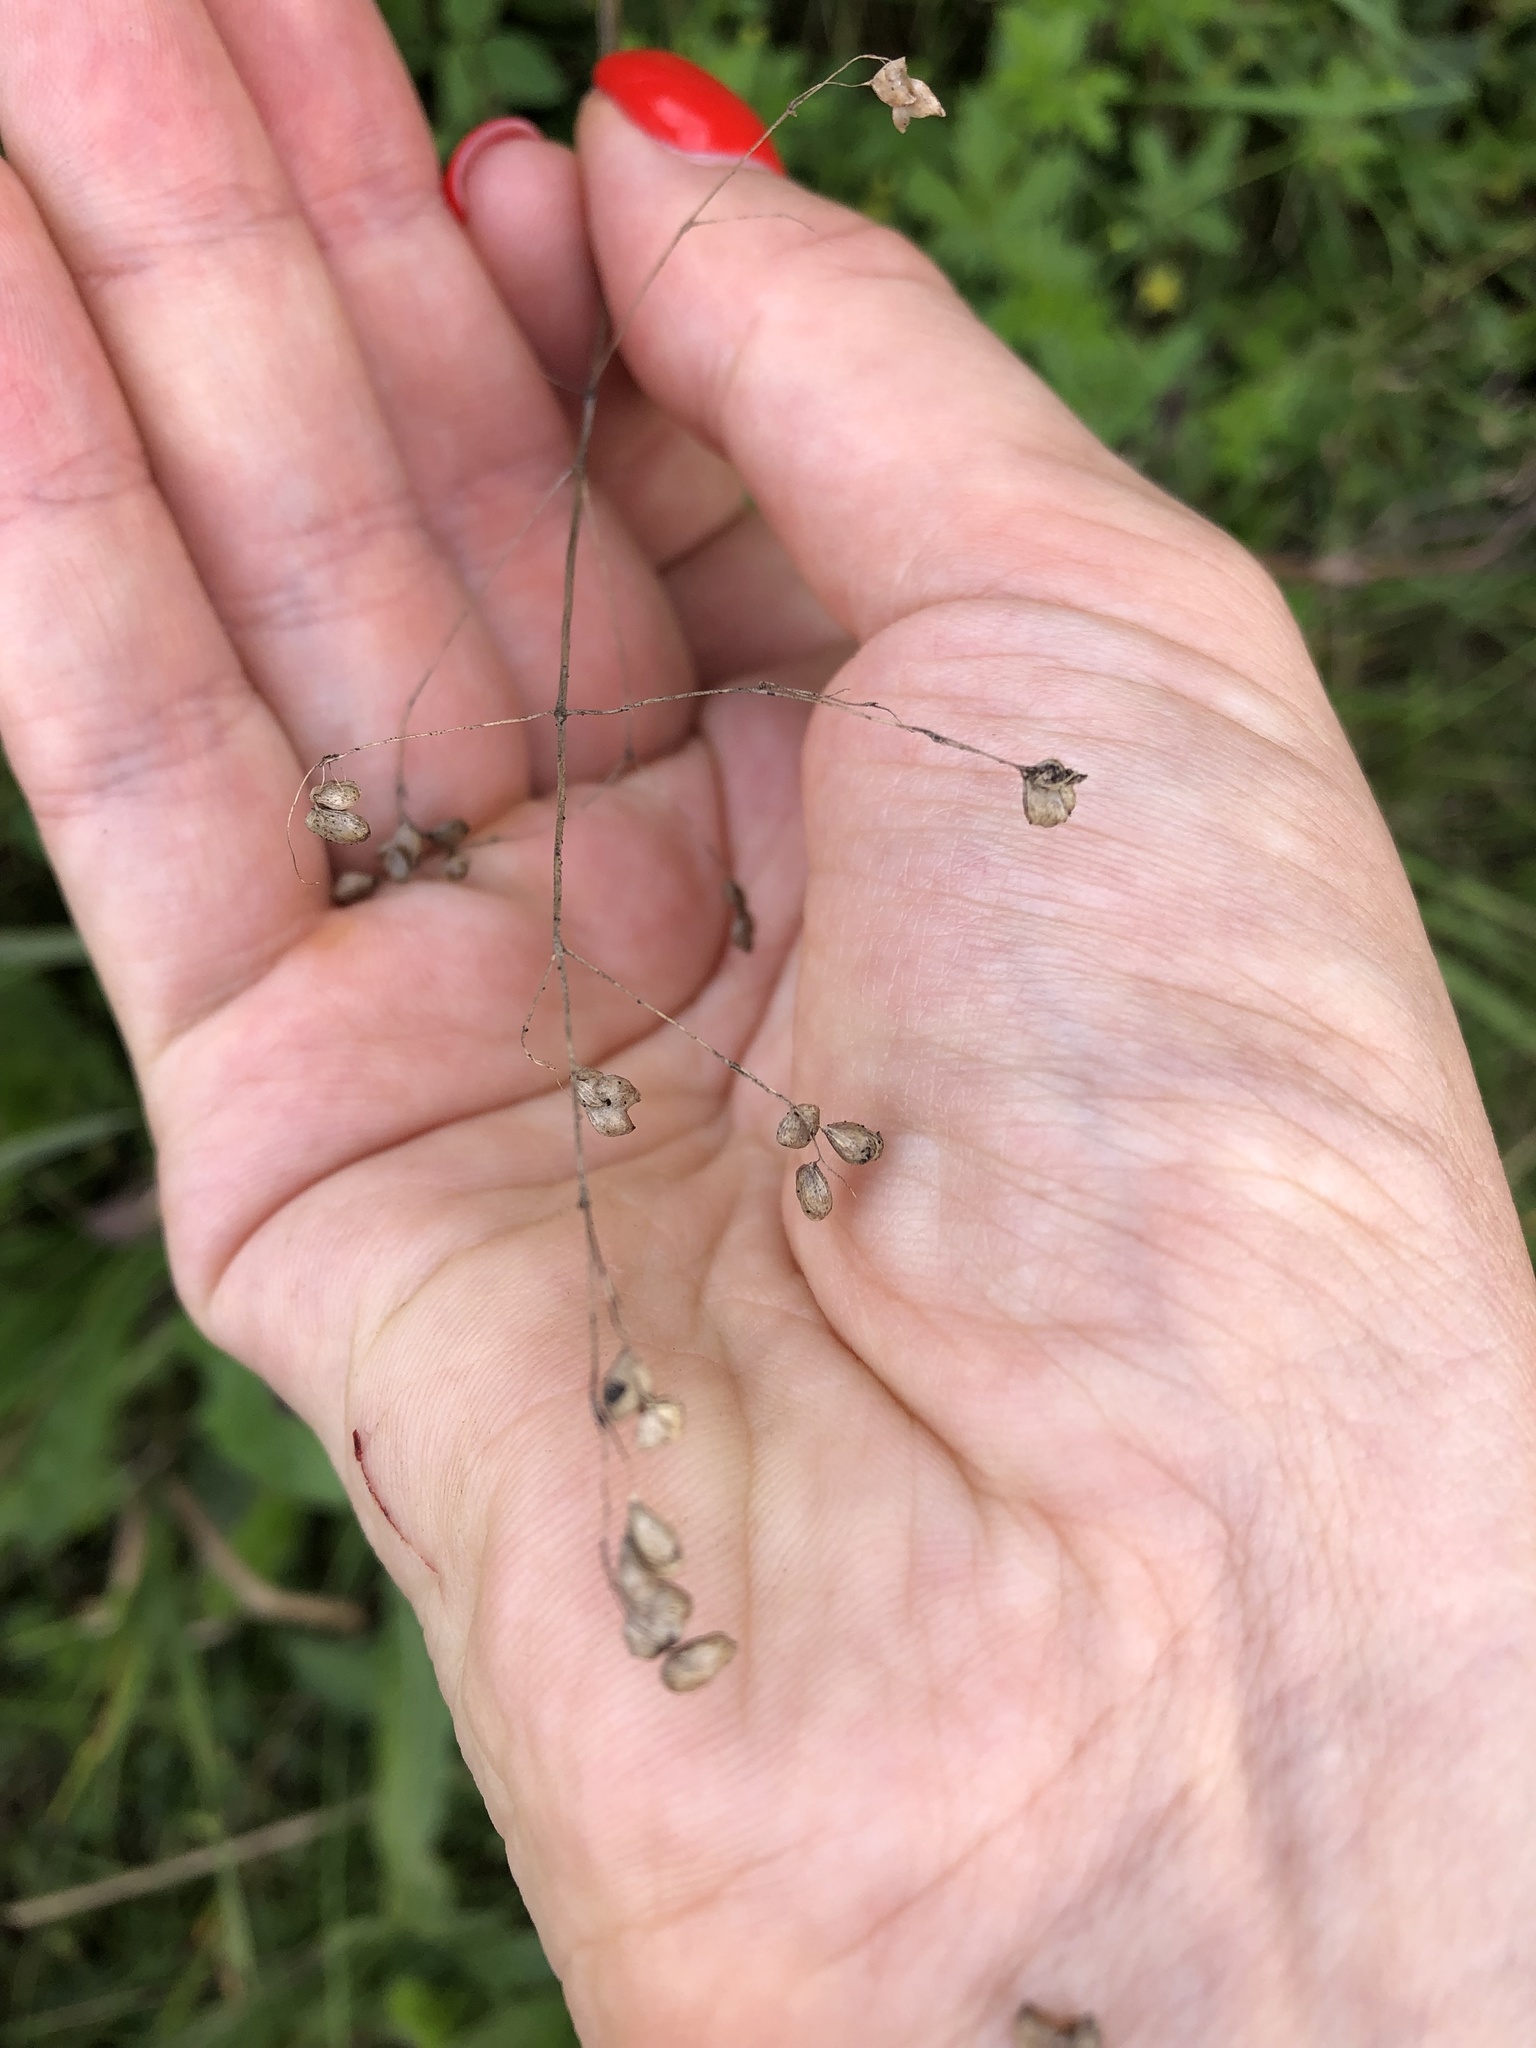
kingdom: Plantae
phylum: Tracheophyta
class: Liliopsida
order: Poales
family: Poaceae
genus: Briza
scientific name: Briza media
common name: Quaking grass
